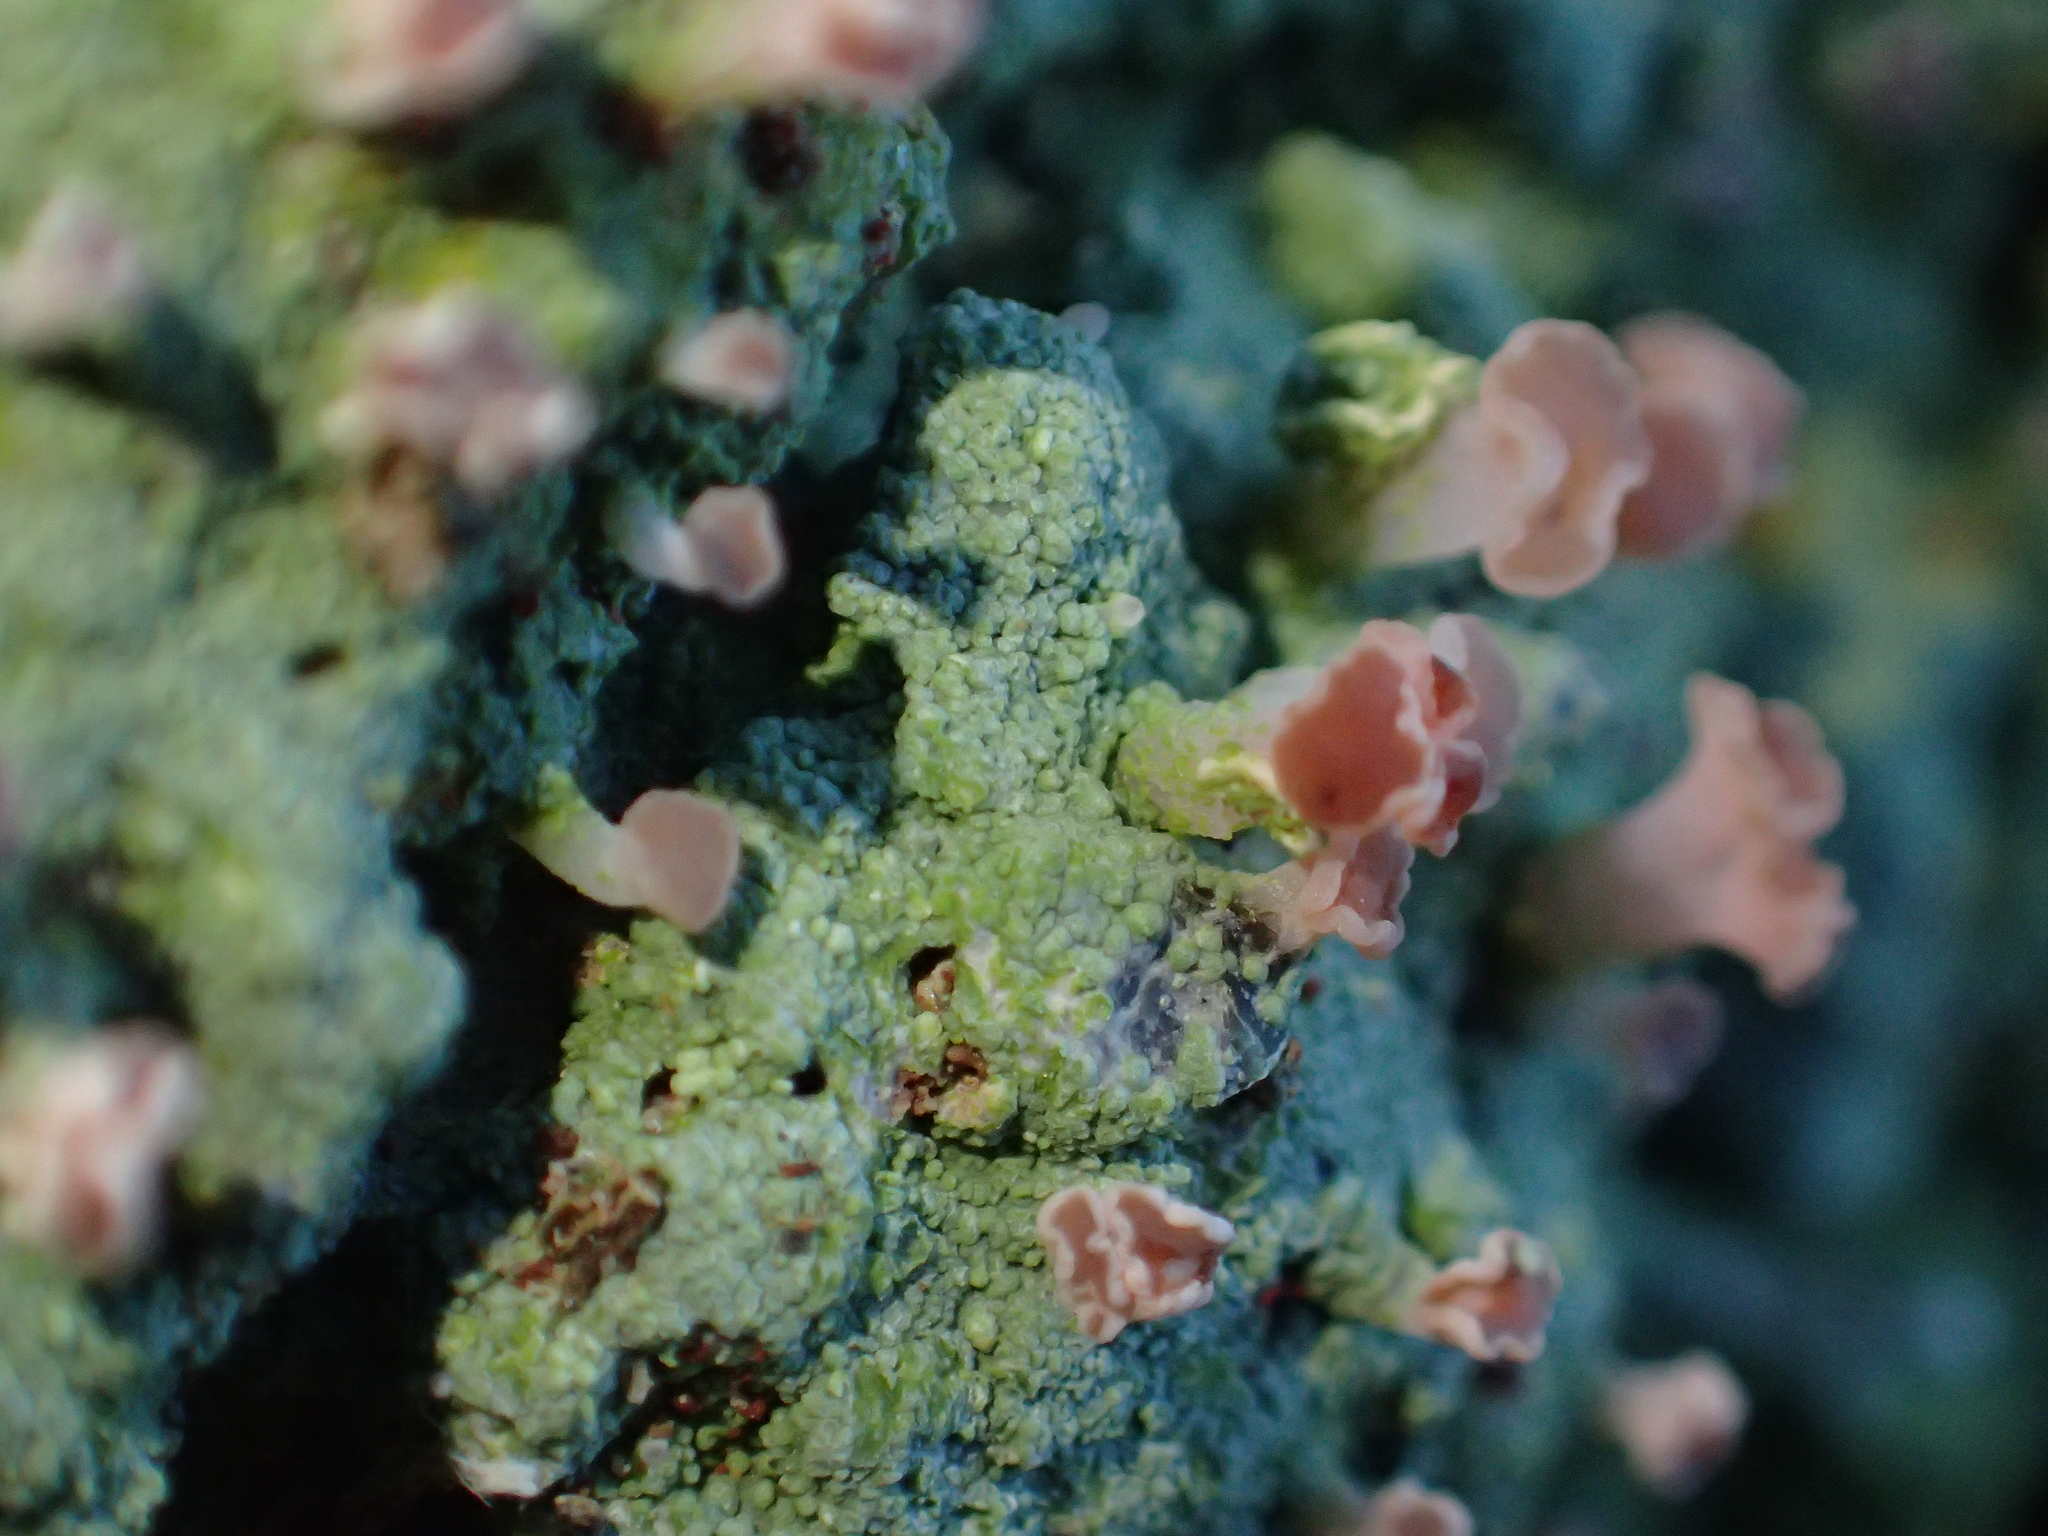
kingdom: Fungi
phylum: Ascomycota
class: Lecanoromycetes
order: Baeomycetales
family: Baeomycetaceae
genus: Baeomyces
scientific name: Baeomyces heteromorphus
